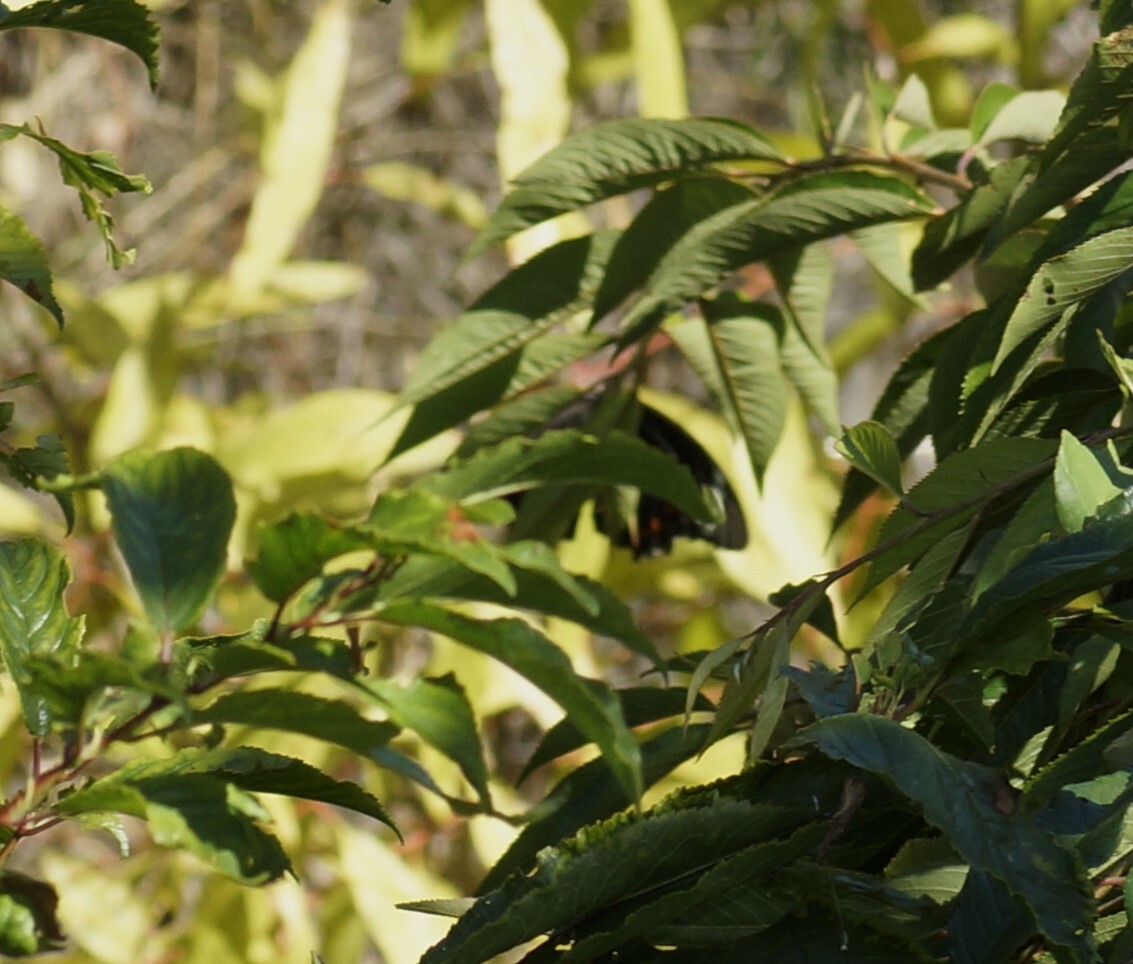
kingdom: Animalia
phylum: Arthropoda
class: Insecta
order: Lepidoptera
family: Papilionidae
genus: Papilio
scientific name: Papilio aegeus
